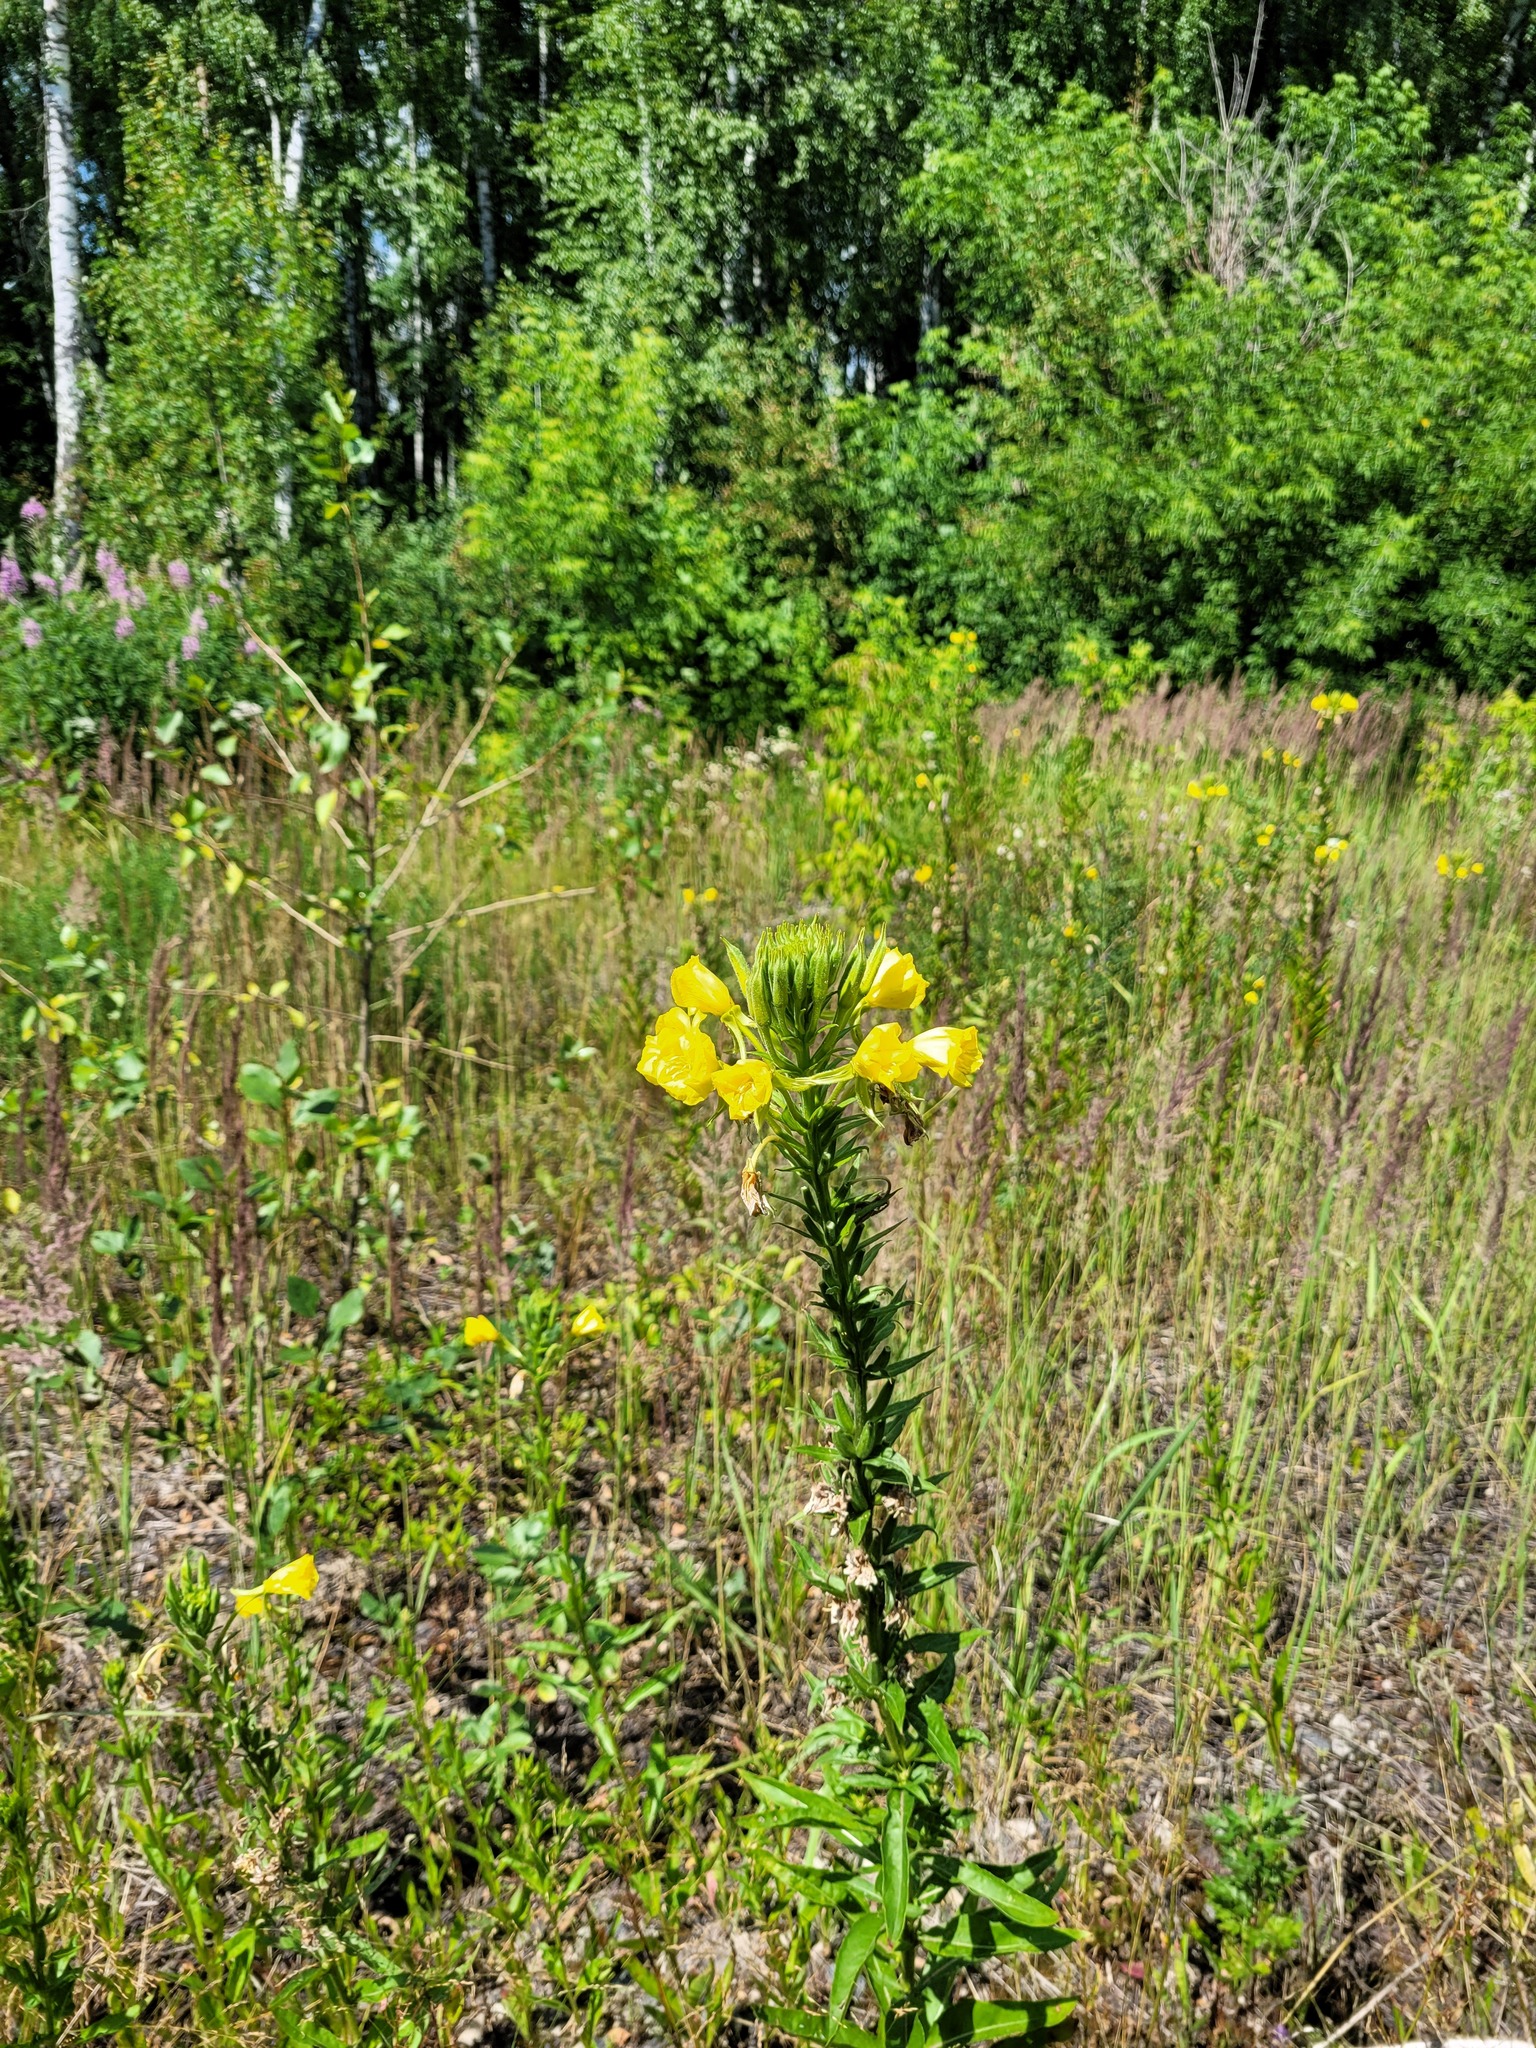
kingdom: Plantae
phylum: Tracheophyta
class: Magnoliopsida
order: Myrtales
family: Onagraceae
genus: Oenothera
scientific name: Oenothera biennis
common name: Common evening-primrose
